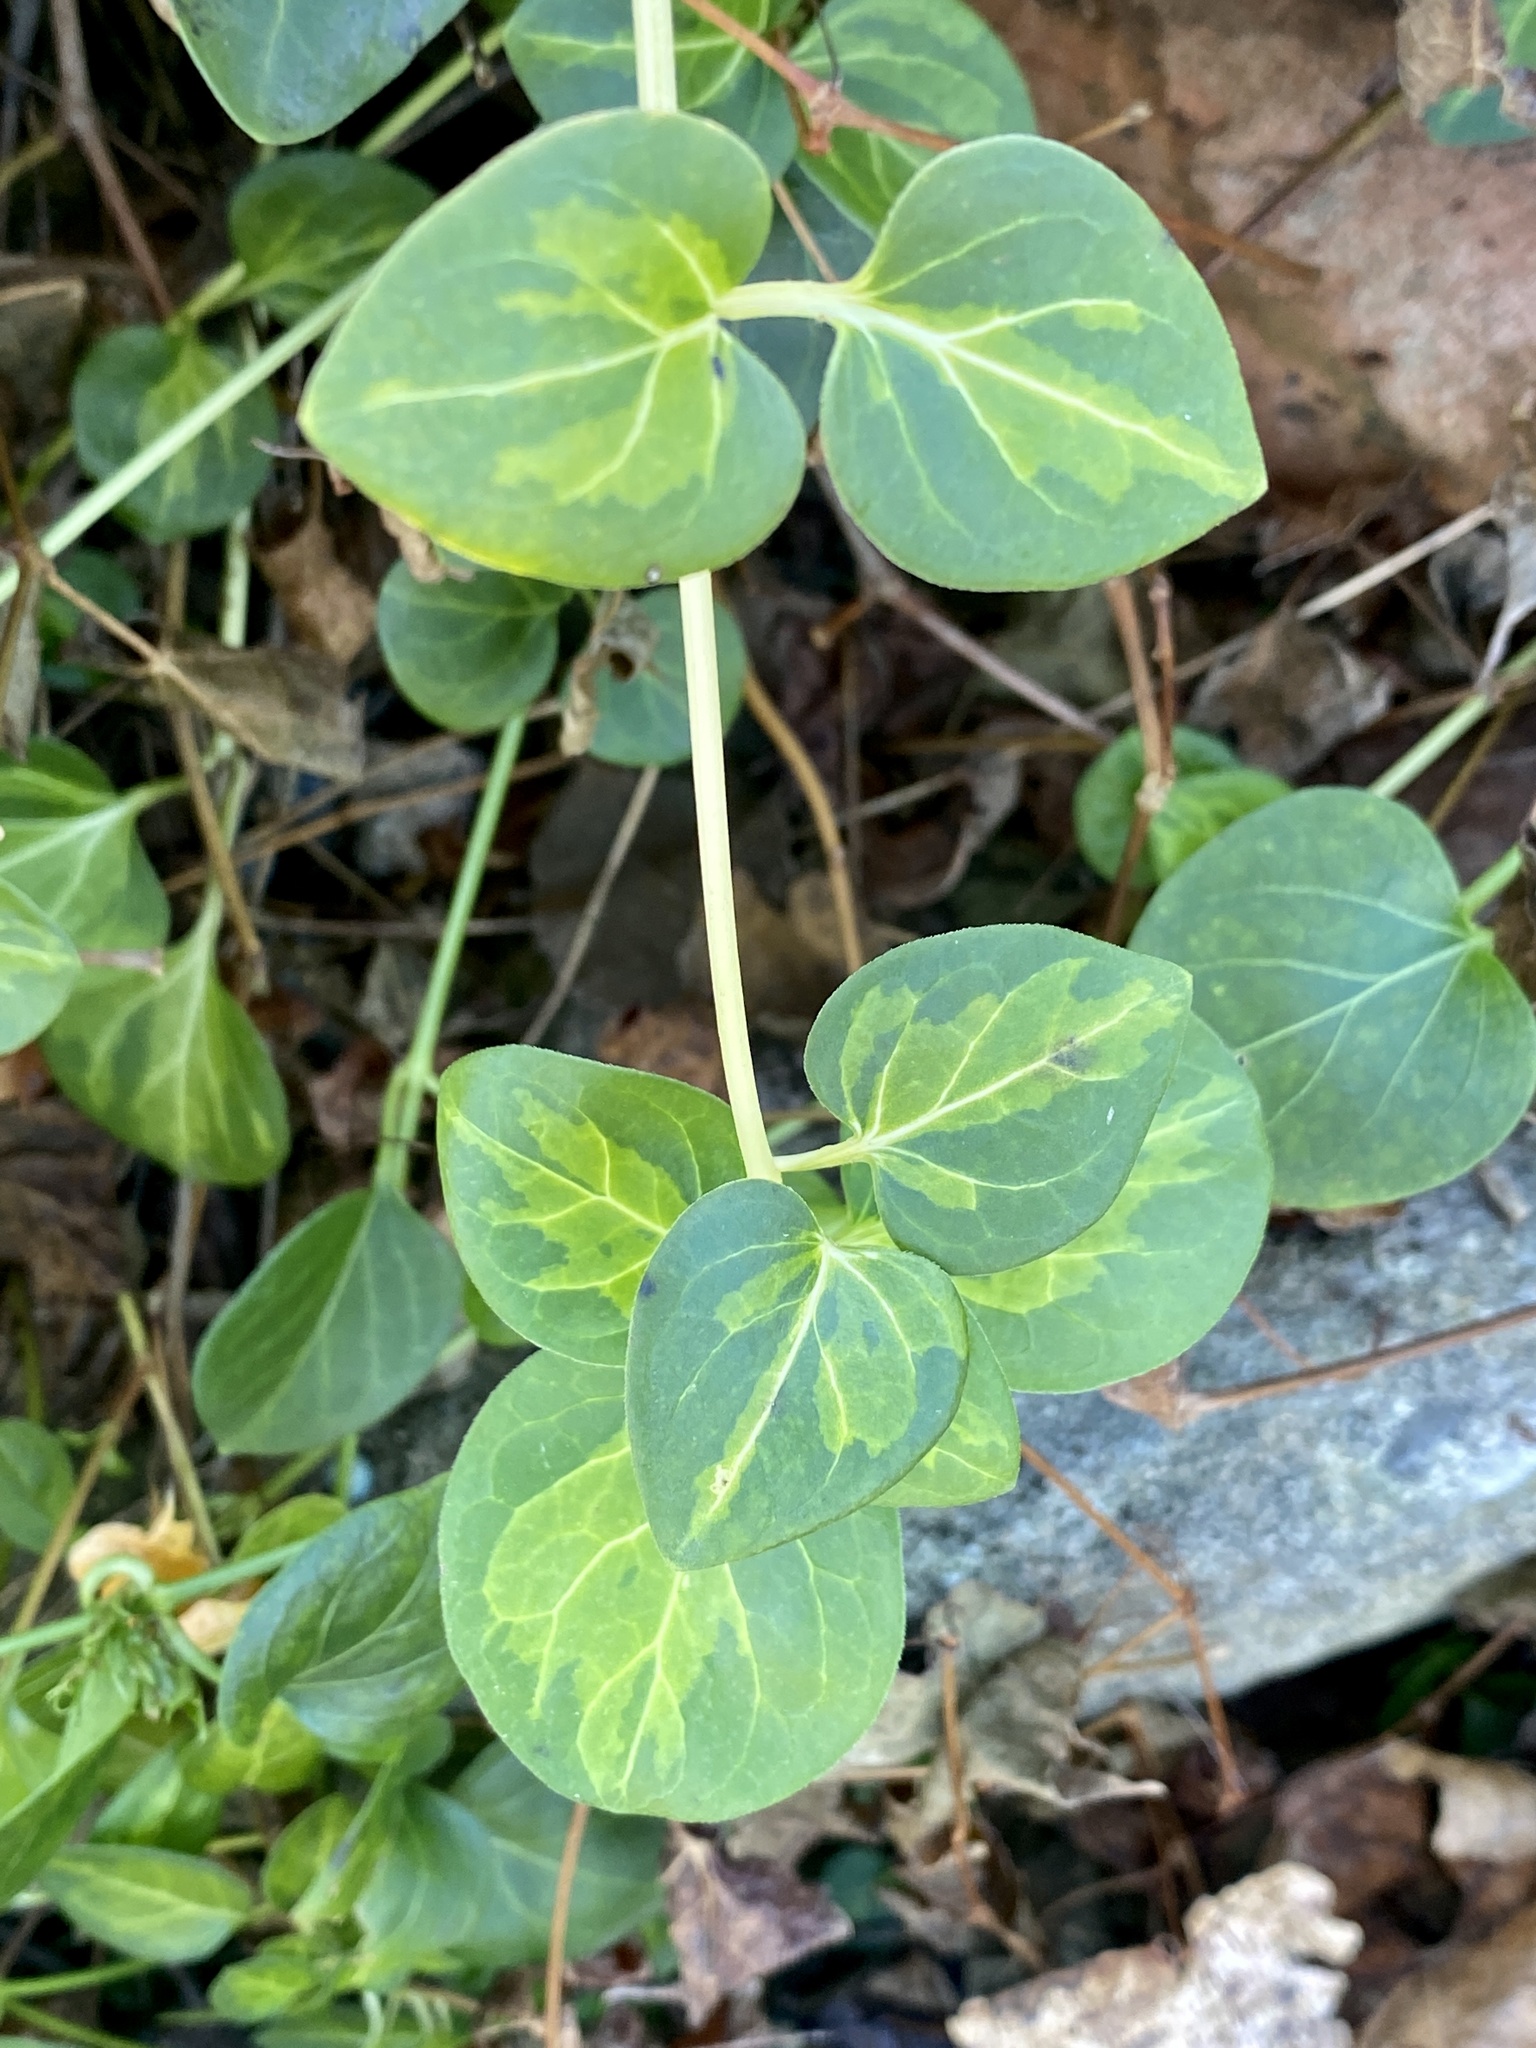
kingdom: Plantae
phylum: Tracheophyta
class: Magnoliopsida
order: Gentianales
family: Apocynaceae
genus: Vinca
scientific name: Vinca major
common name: Greater periwinkle
